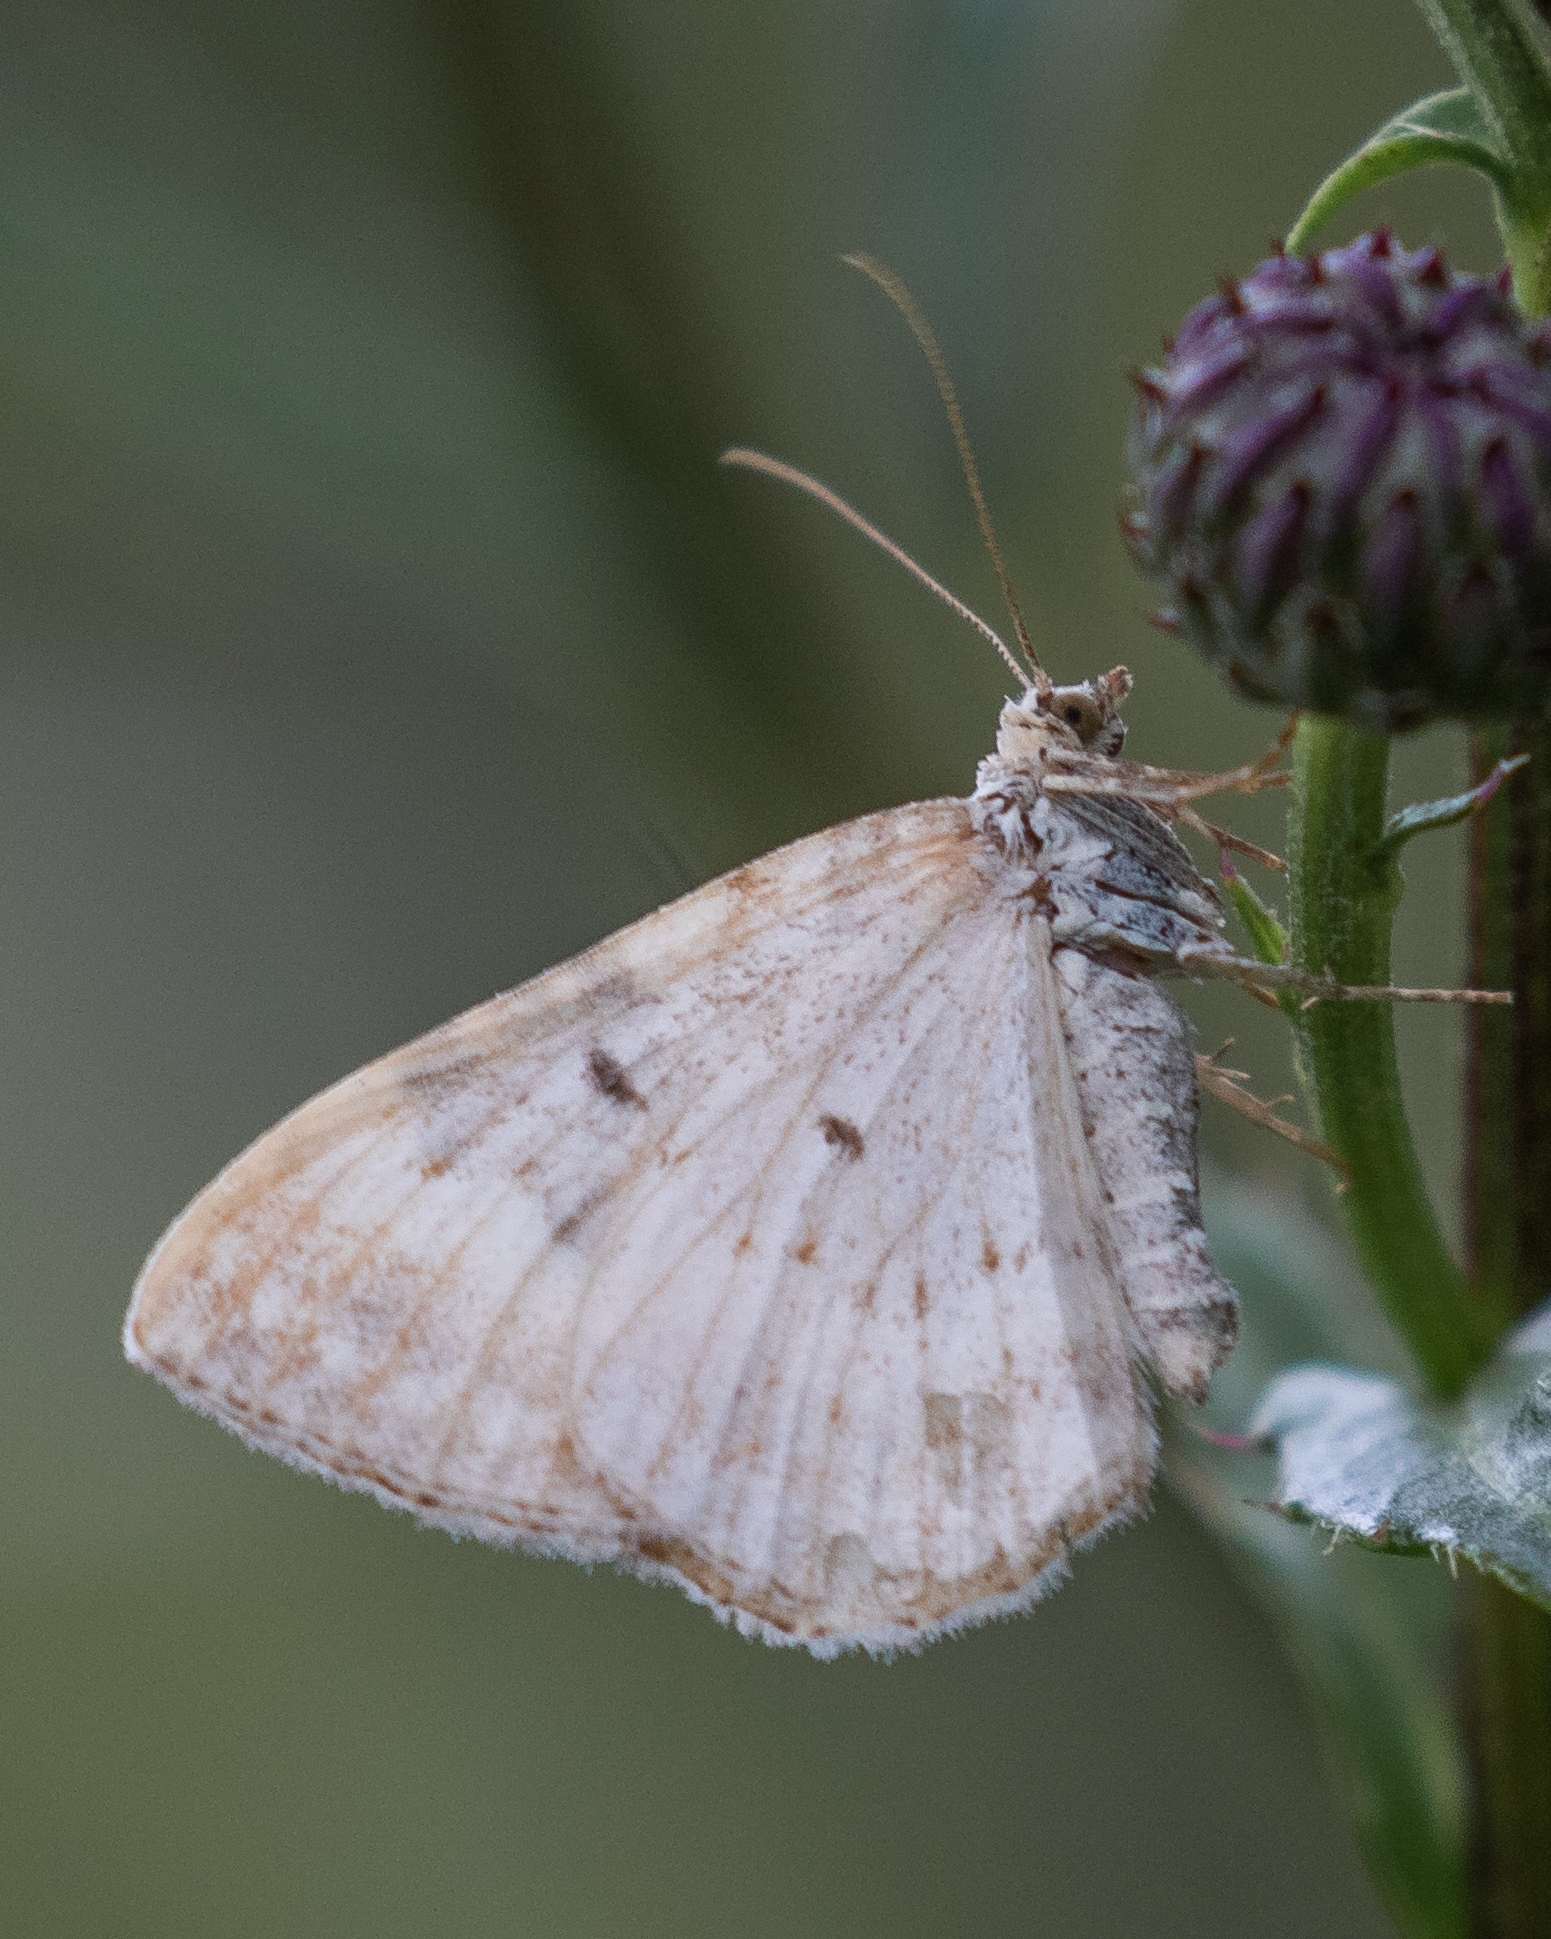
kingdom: Animalia
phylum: Arthropoda
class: Insecta
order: Lepidoptera
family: Geometridae
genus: Xanthorhoe
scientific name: Xanthorhoe montanata
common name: Silver-ground carpet
